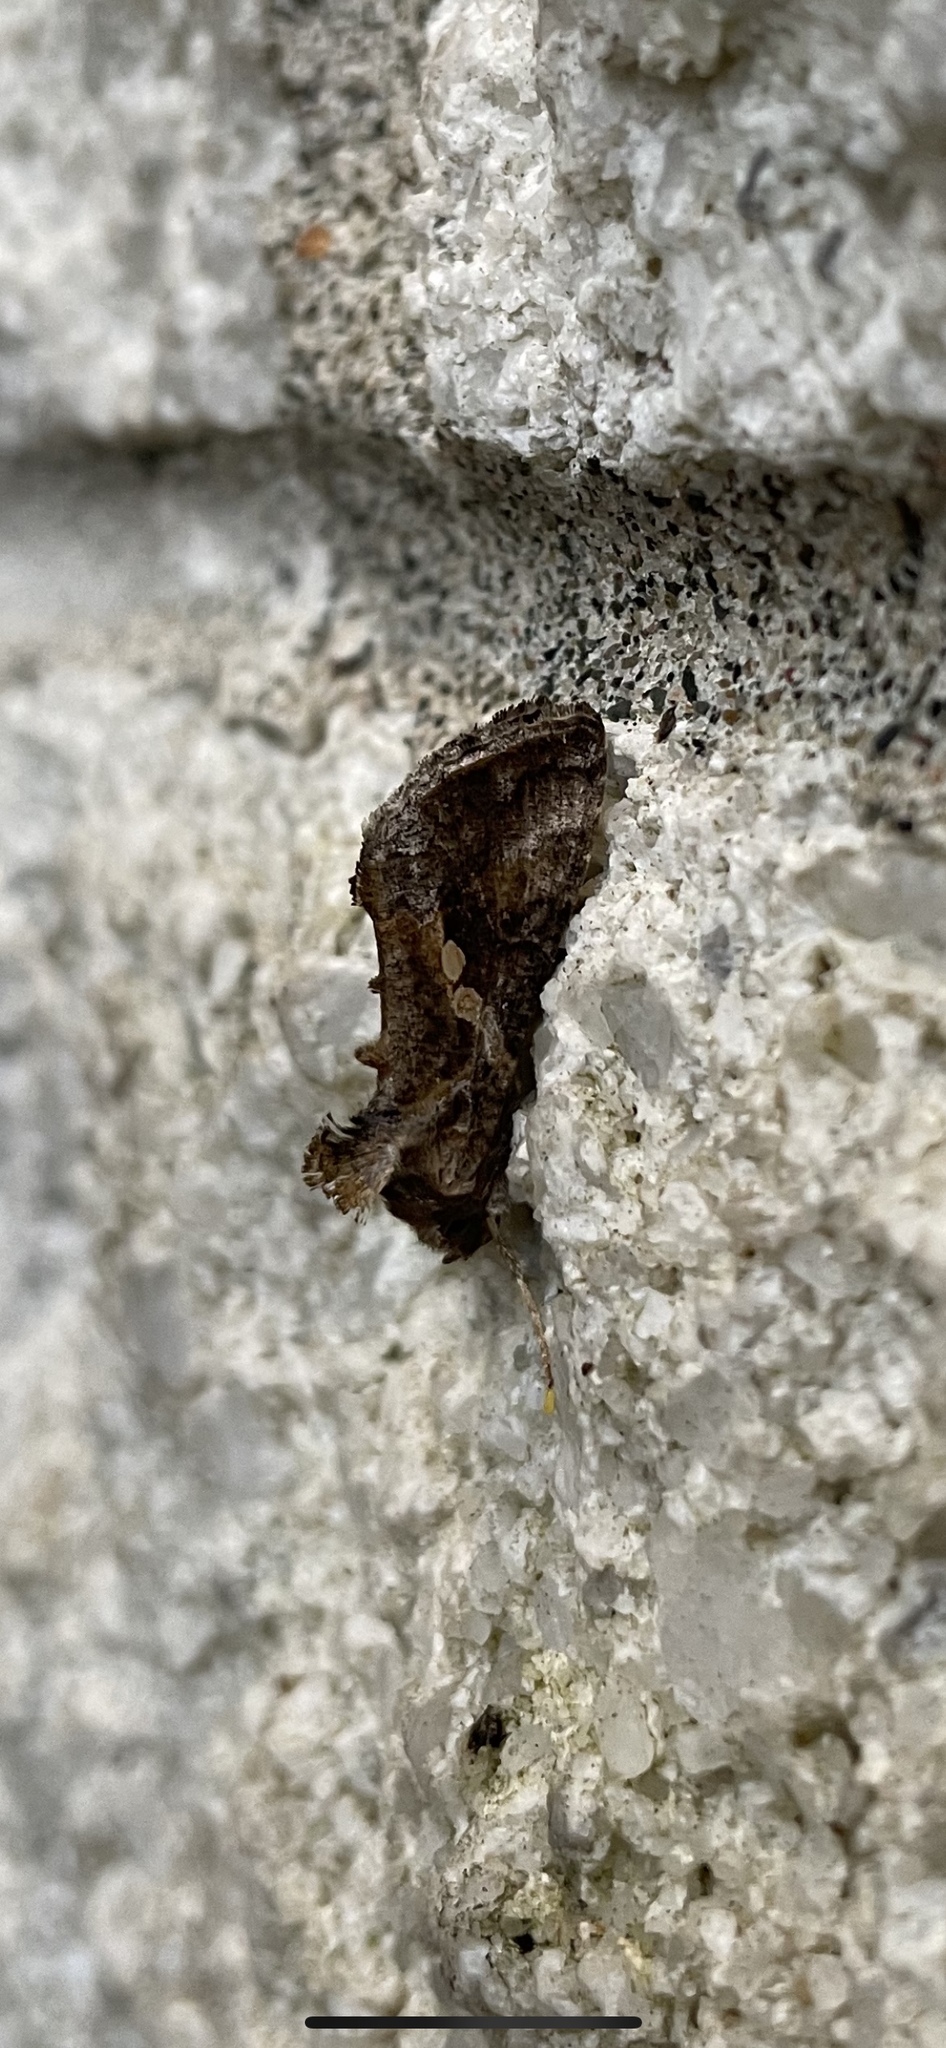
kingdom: Animalia
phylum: Arthropoda
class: Insecta
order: Lepidoptera
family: Noctuidae
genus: Chrysodeixis
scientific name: Chrysodeixis includens
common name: Cutworm moth
